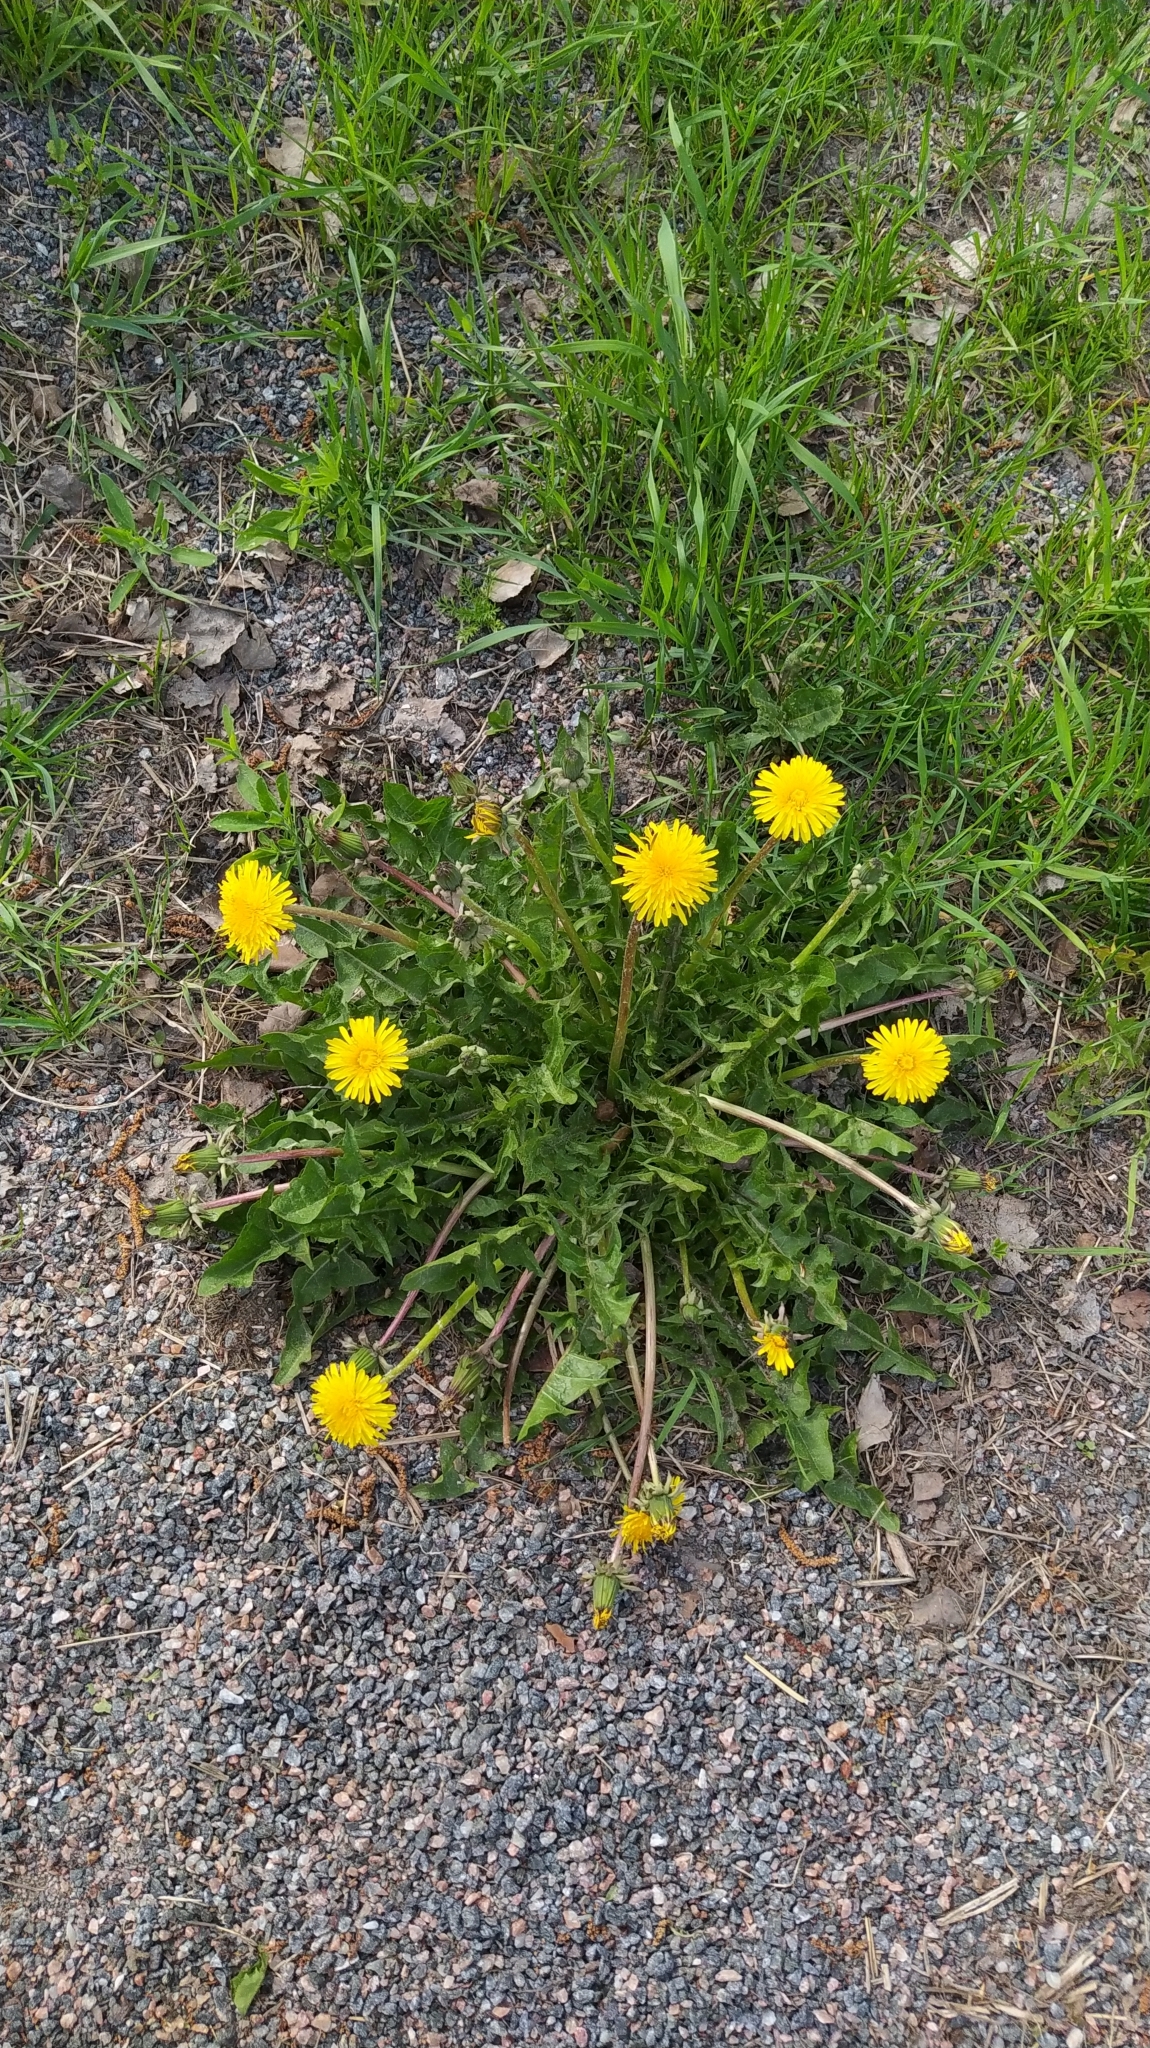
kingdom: Plantae
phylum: Tracheophyta
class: Magnoliopsida
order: Asterales
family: Asteraceae
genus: Taraxacum
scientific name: Taraxacum officinale
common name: Common dandelion
